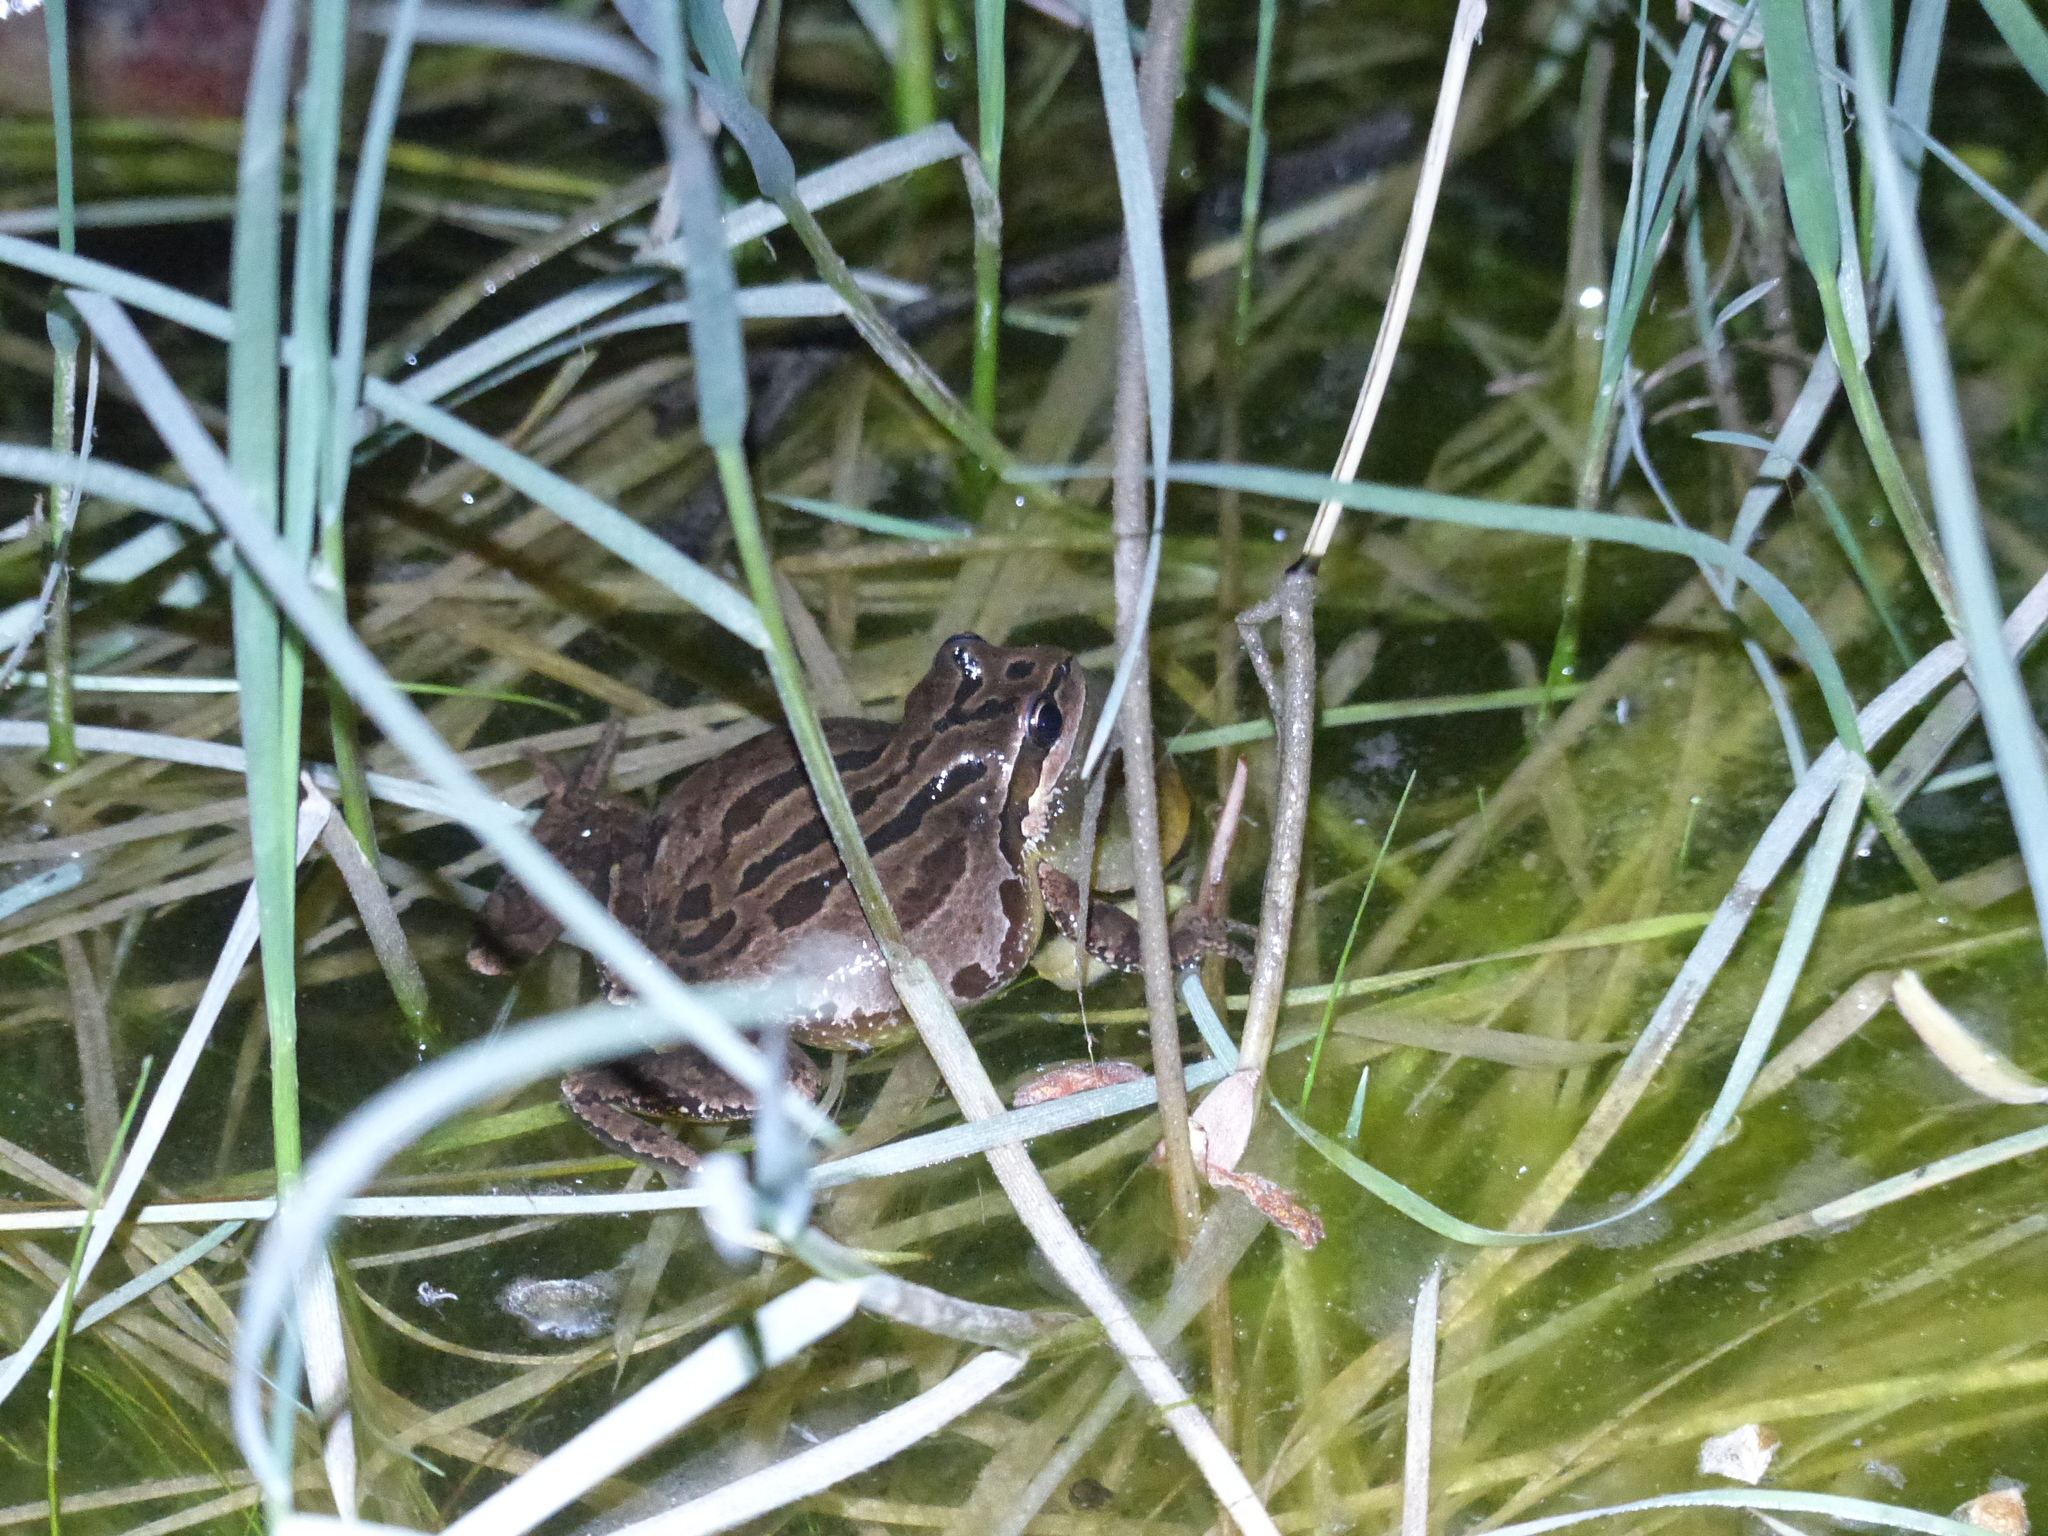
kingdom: Animalia
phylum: Chordata
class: Amphibia
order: Anura
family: Hylidae
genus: Pseudacris
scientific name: Pseudacris regilla
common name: Pacific chorus frog
